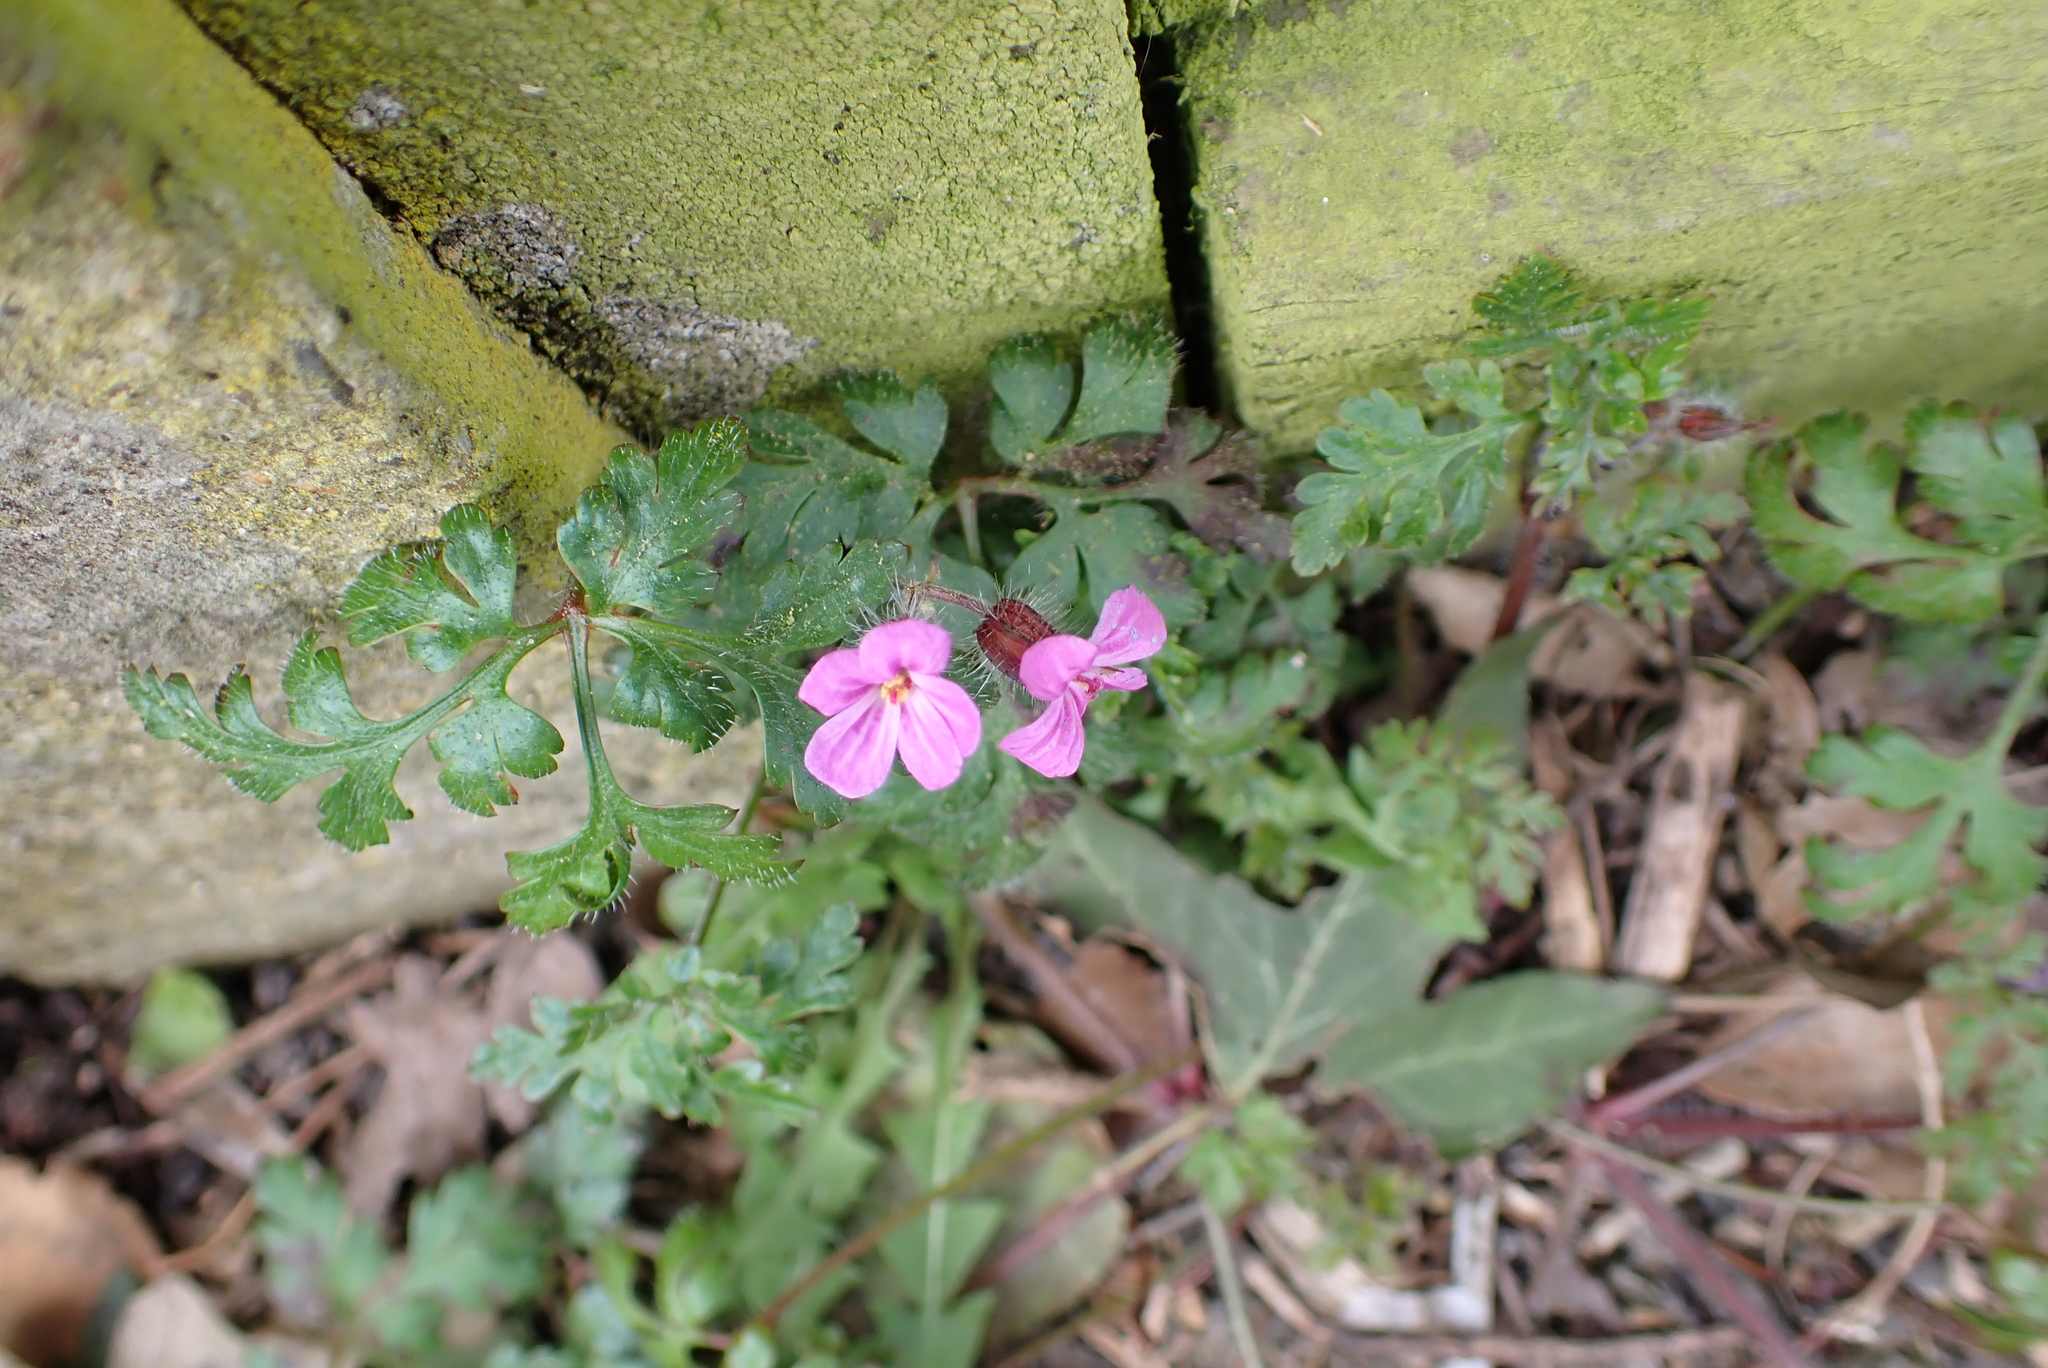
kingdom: Plantae
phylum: Tracheophyta
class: Magnoliopsida
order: Geraniales
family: Geraniaceae
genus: Geranium
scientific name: Geranium robertianum
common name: Herb-robert
